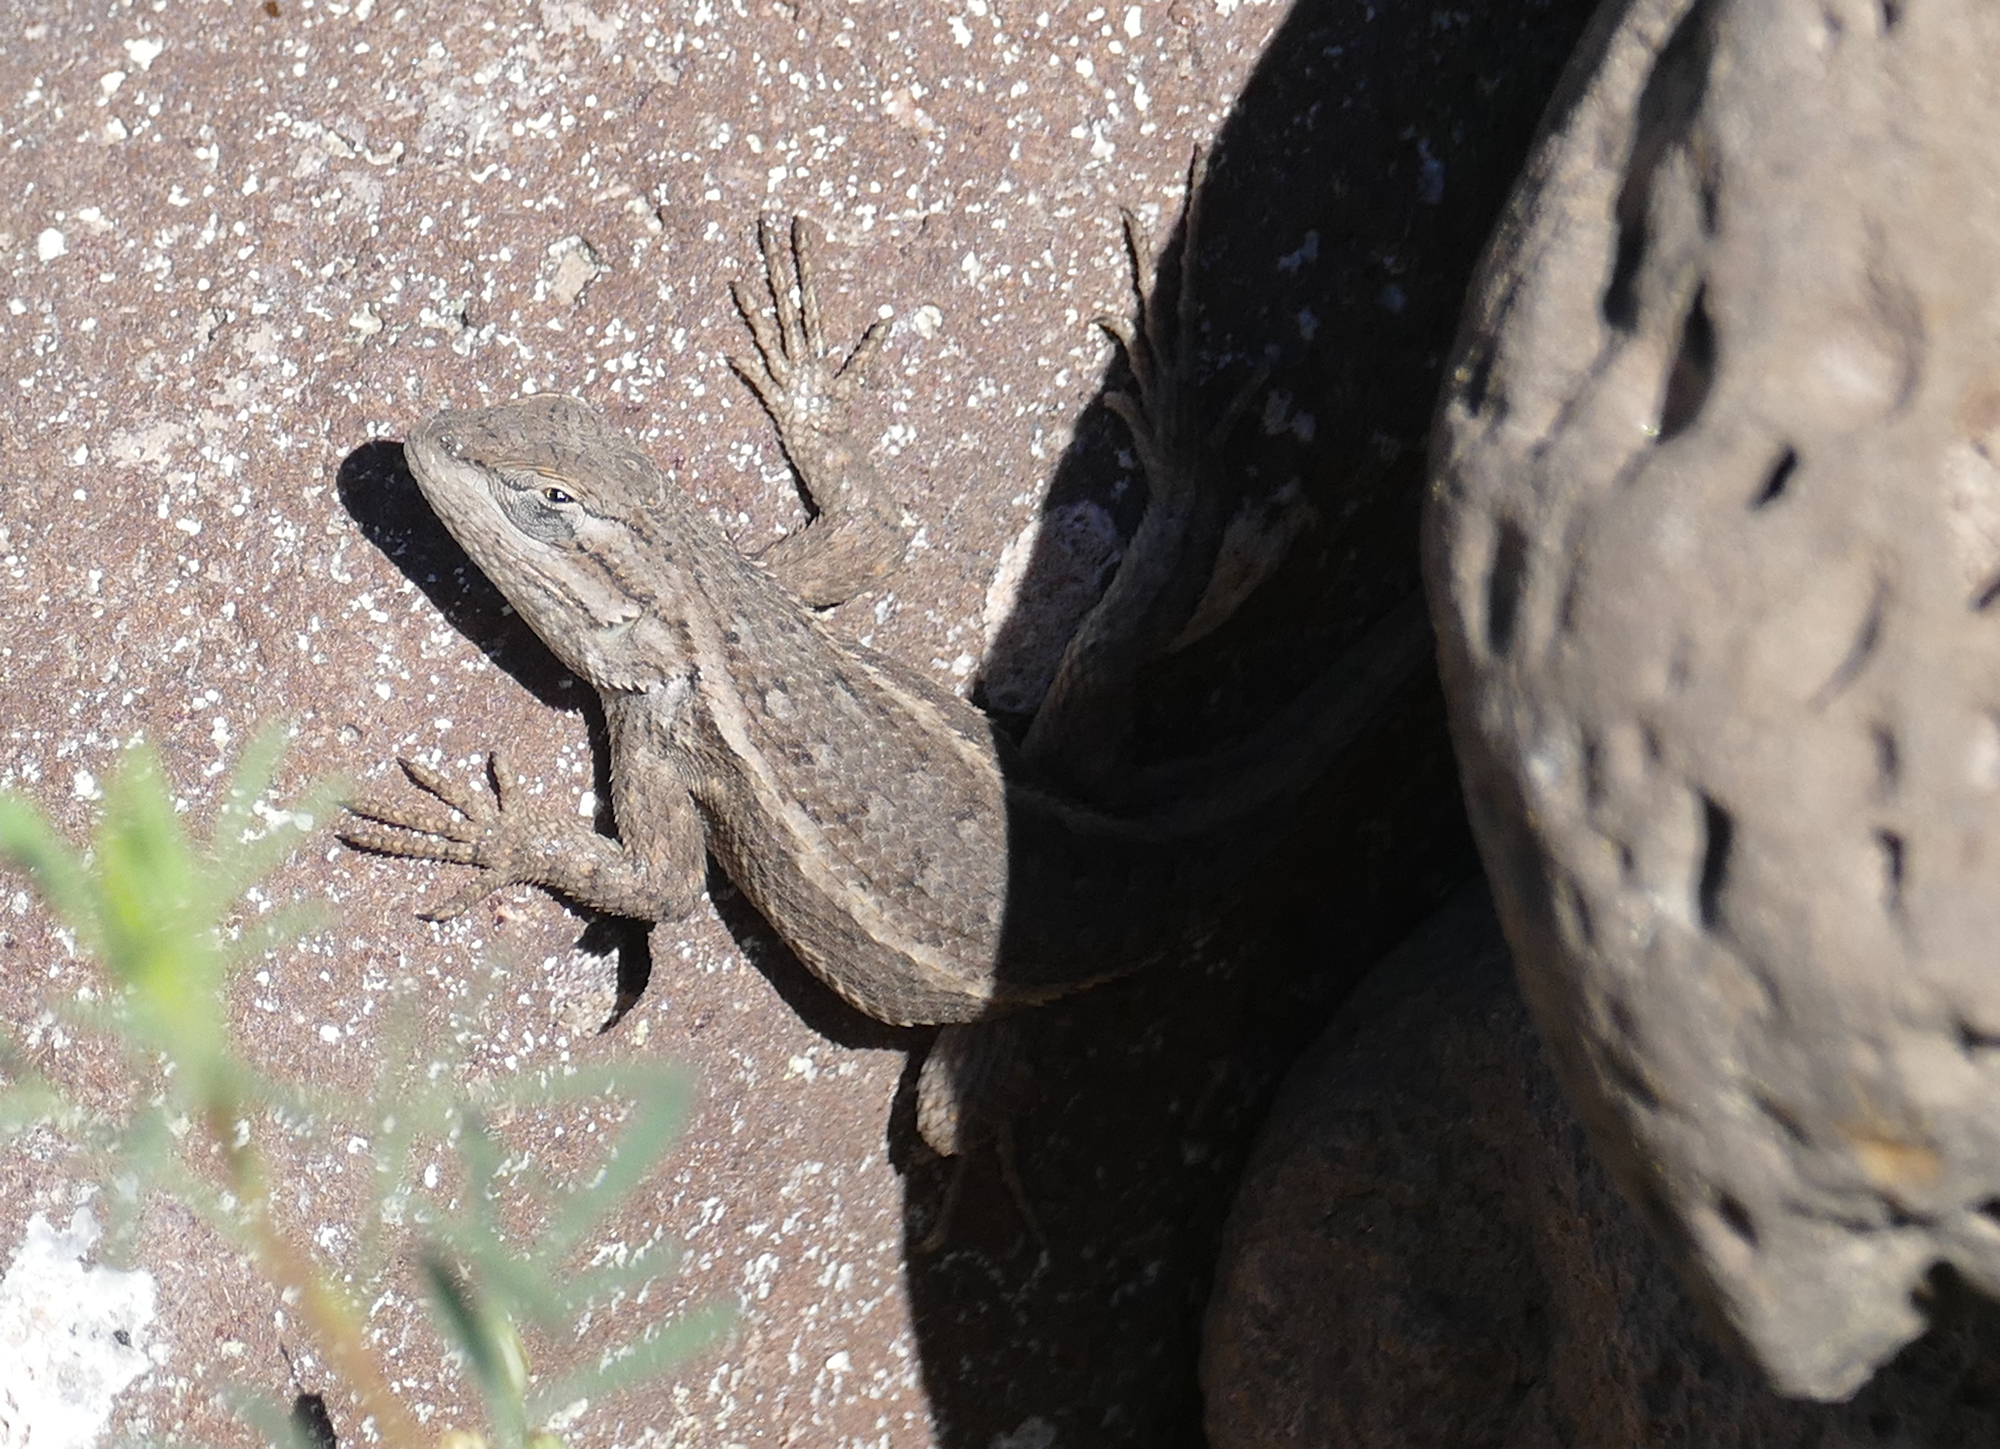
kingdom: Animalia
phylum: Chordata
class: Squamata
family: Phrynosomatidae
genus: Sceloporus
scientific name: Sceloporus cowlesi
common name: White sands prairie lizard
